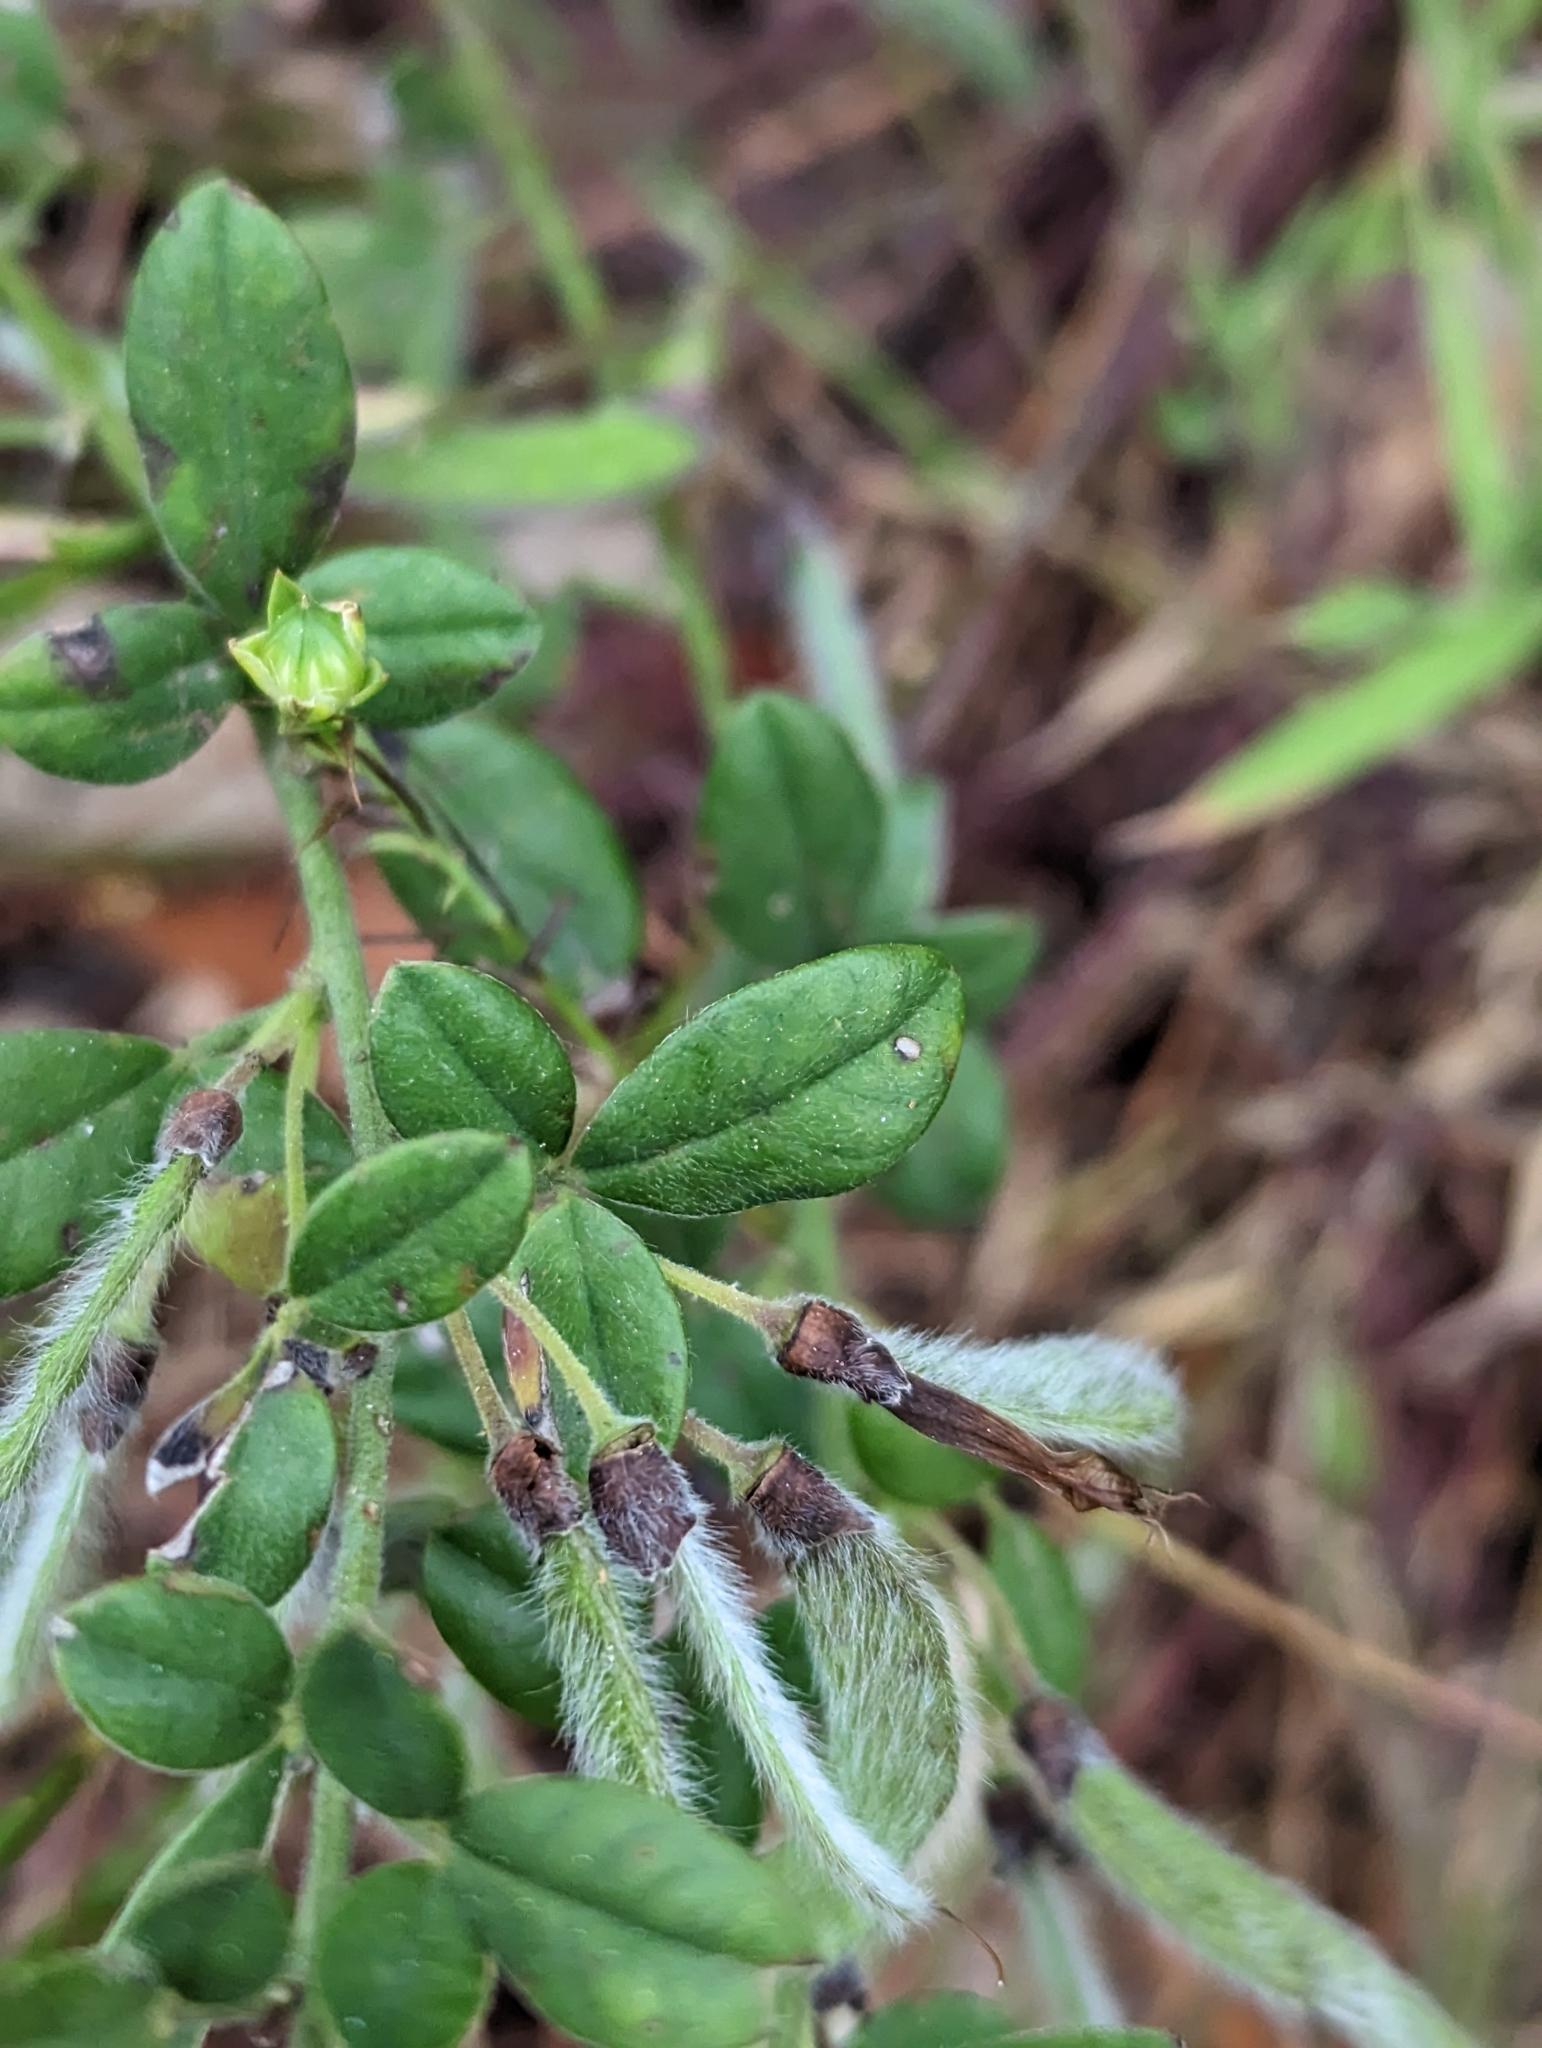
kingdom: Plantae
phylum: Tracheophyta
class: Magnoliopsida
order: Fabales
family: Fabaceae
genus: Cytisus
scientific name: Cytisus villosus
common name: Hairybroom
